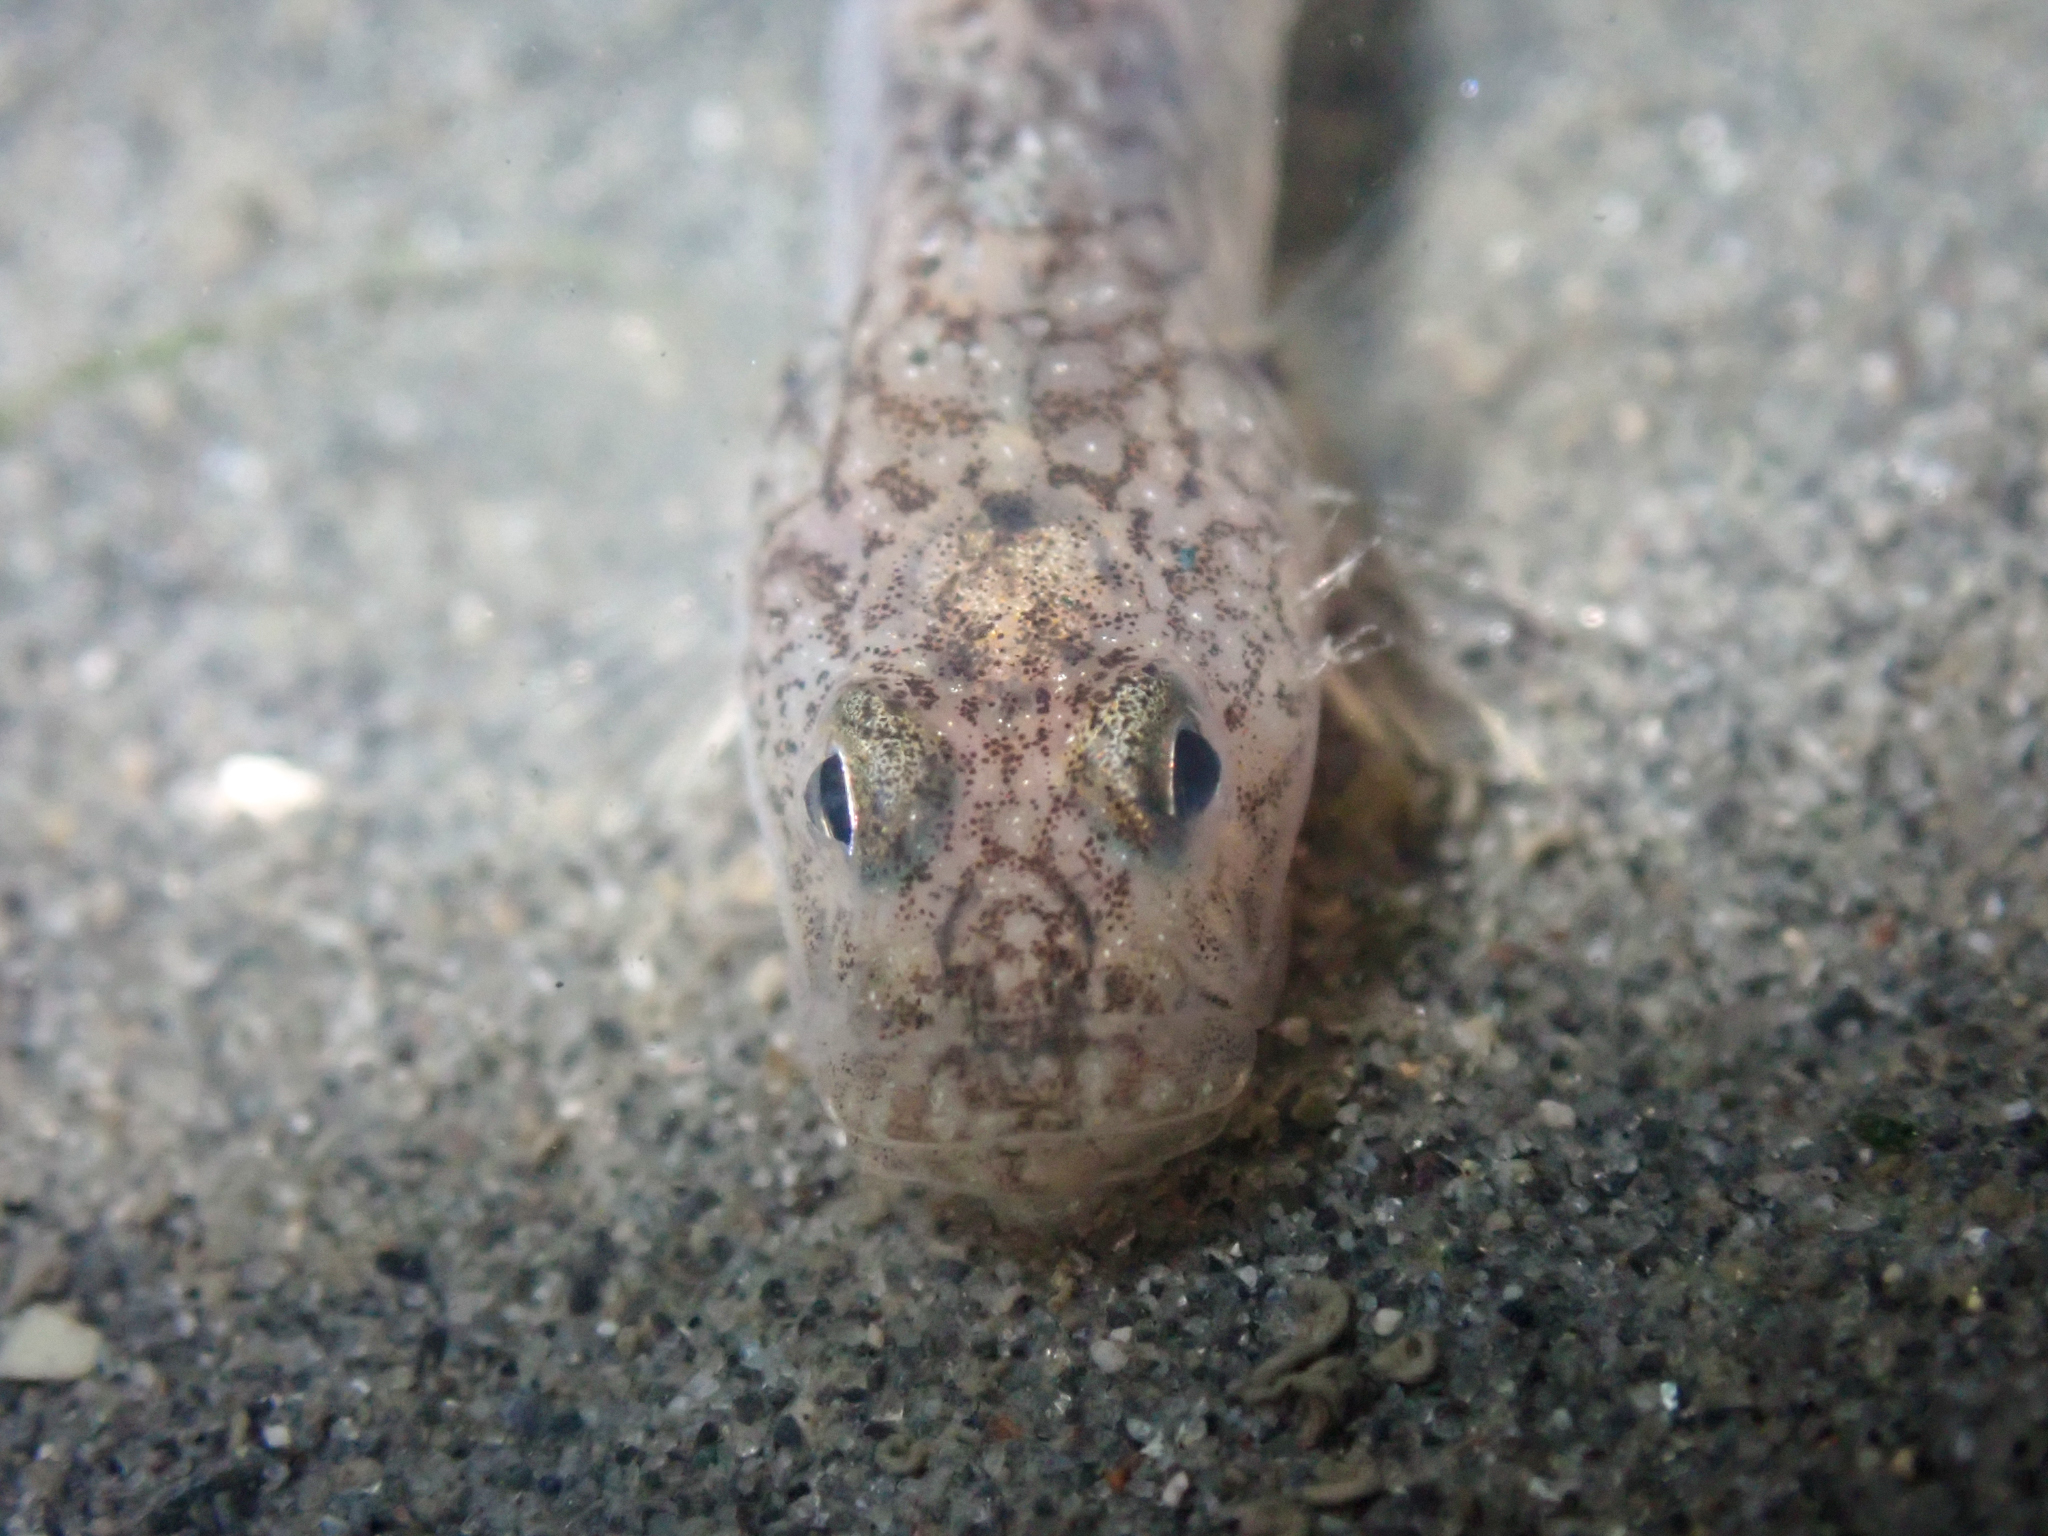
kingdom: Animalia
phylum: Chordata
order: Perciformes
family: Gobiidae
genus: Clevelandia
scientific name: Clevelandia ios
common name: Arrow goby
